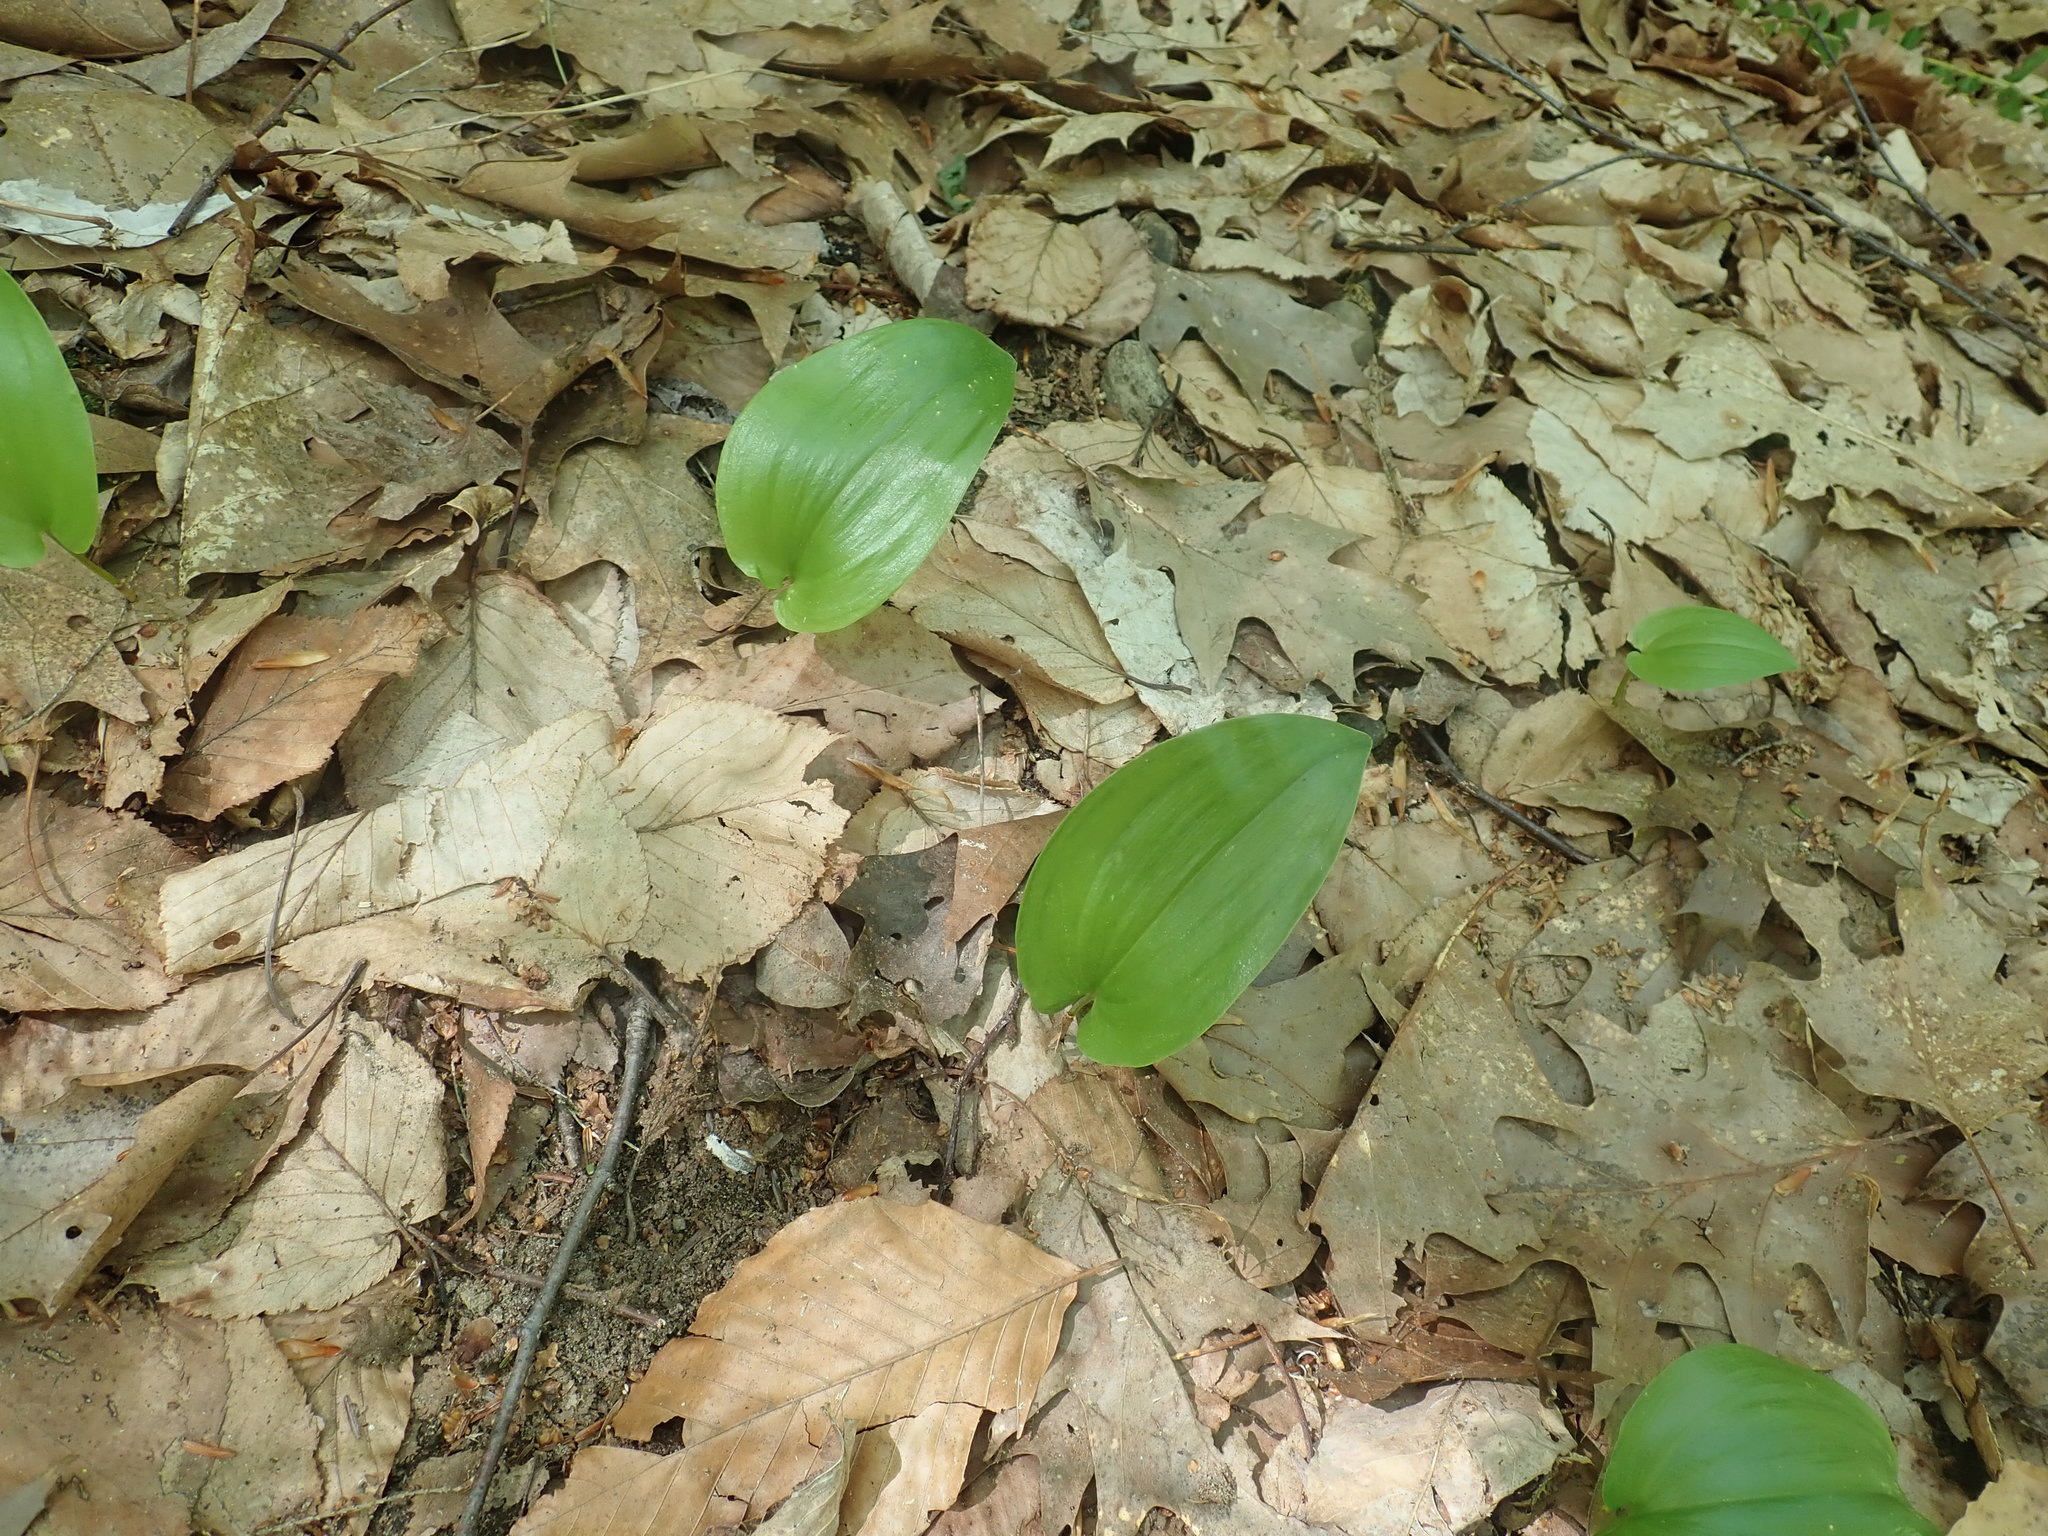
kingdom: Plantae
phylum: Tracheophyta
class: Liliopsida
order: Asparagales
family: Asparagaceae
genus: Maianthemum
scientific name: Maianthemum canadense
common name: False lily-of-the-valley
